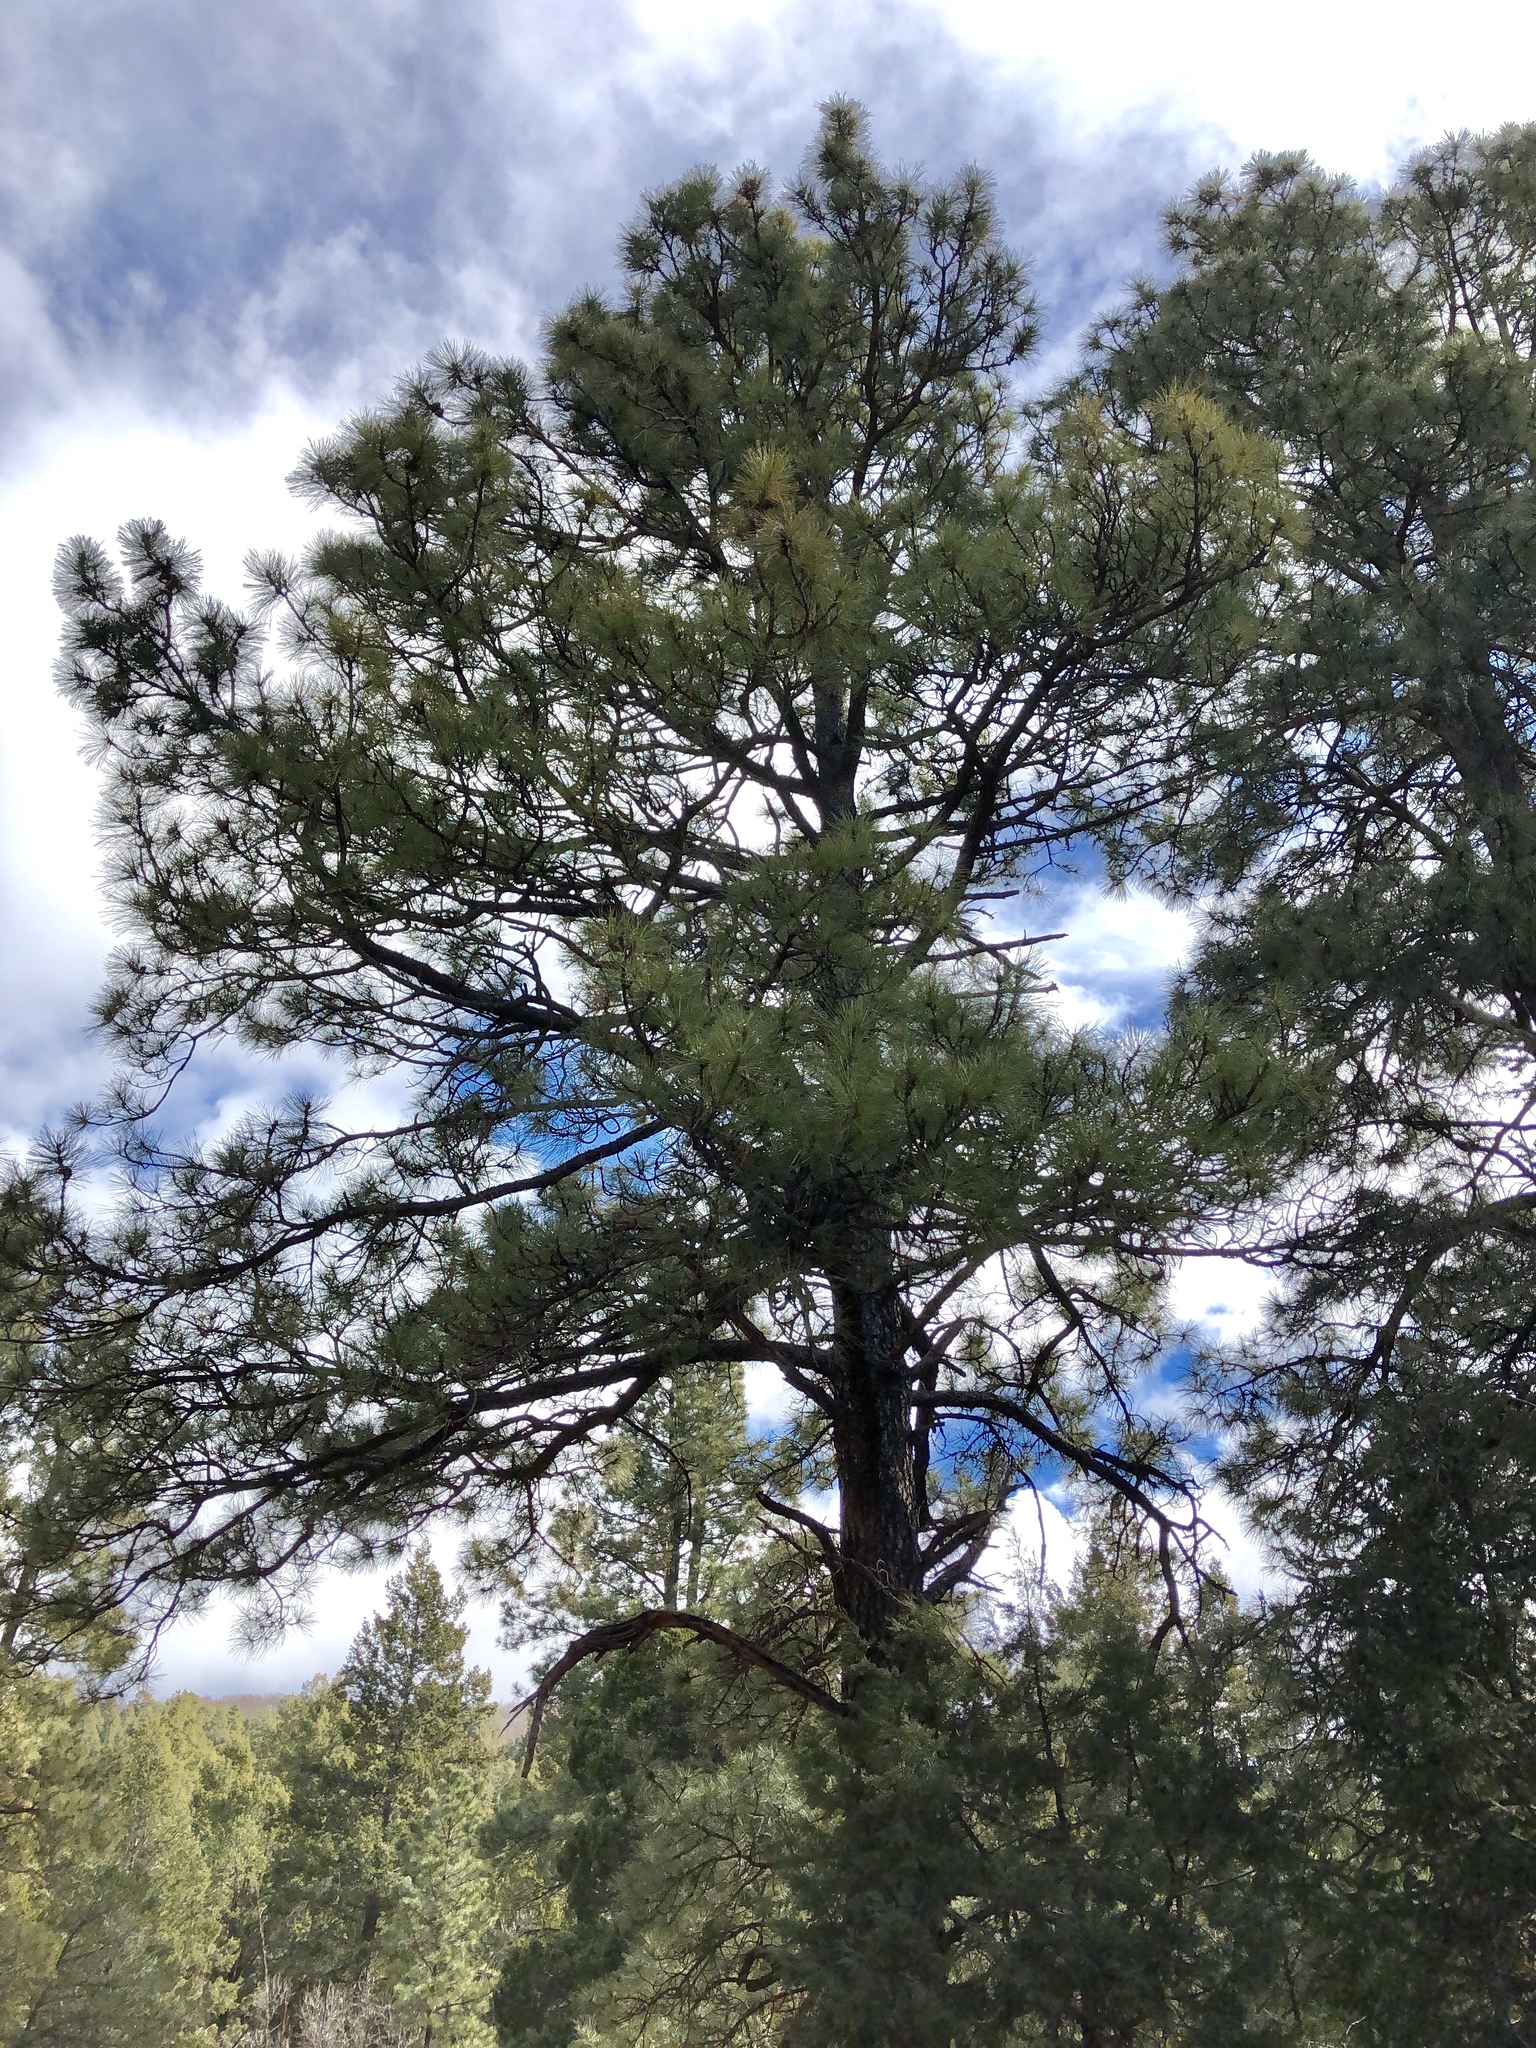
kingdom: Plantae
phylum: Tracheophyta
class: Pinopsida
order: Pinales
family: Pinaceae
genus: Pinus
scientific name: Pinus ponderosa
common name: Western yellow-pine
